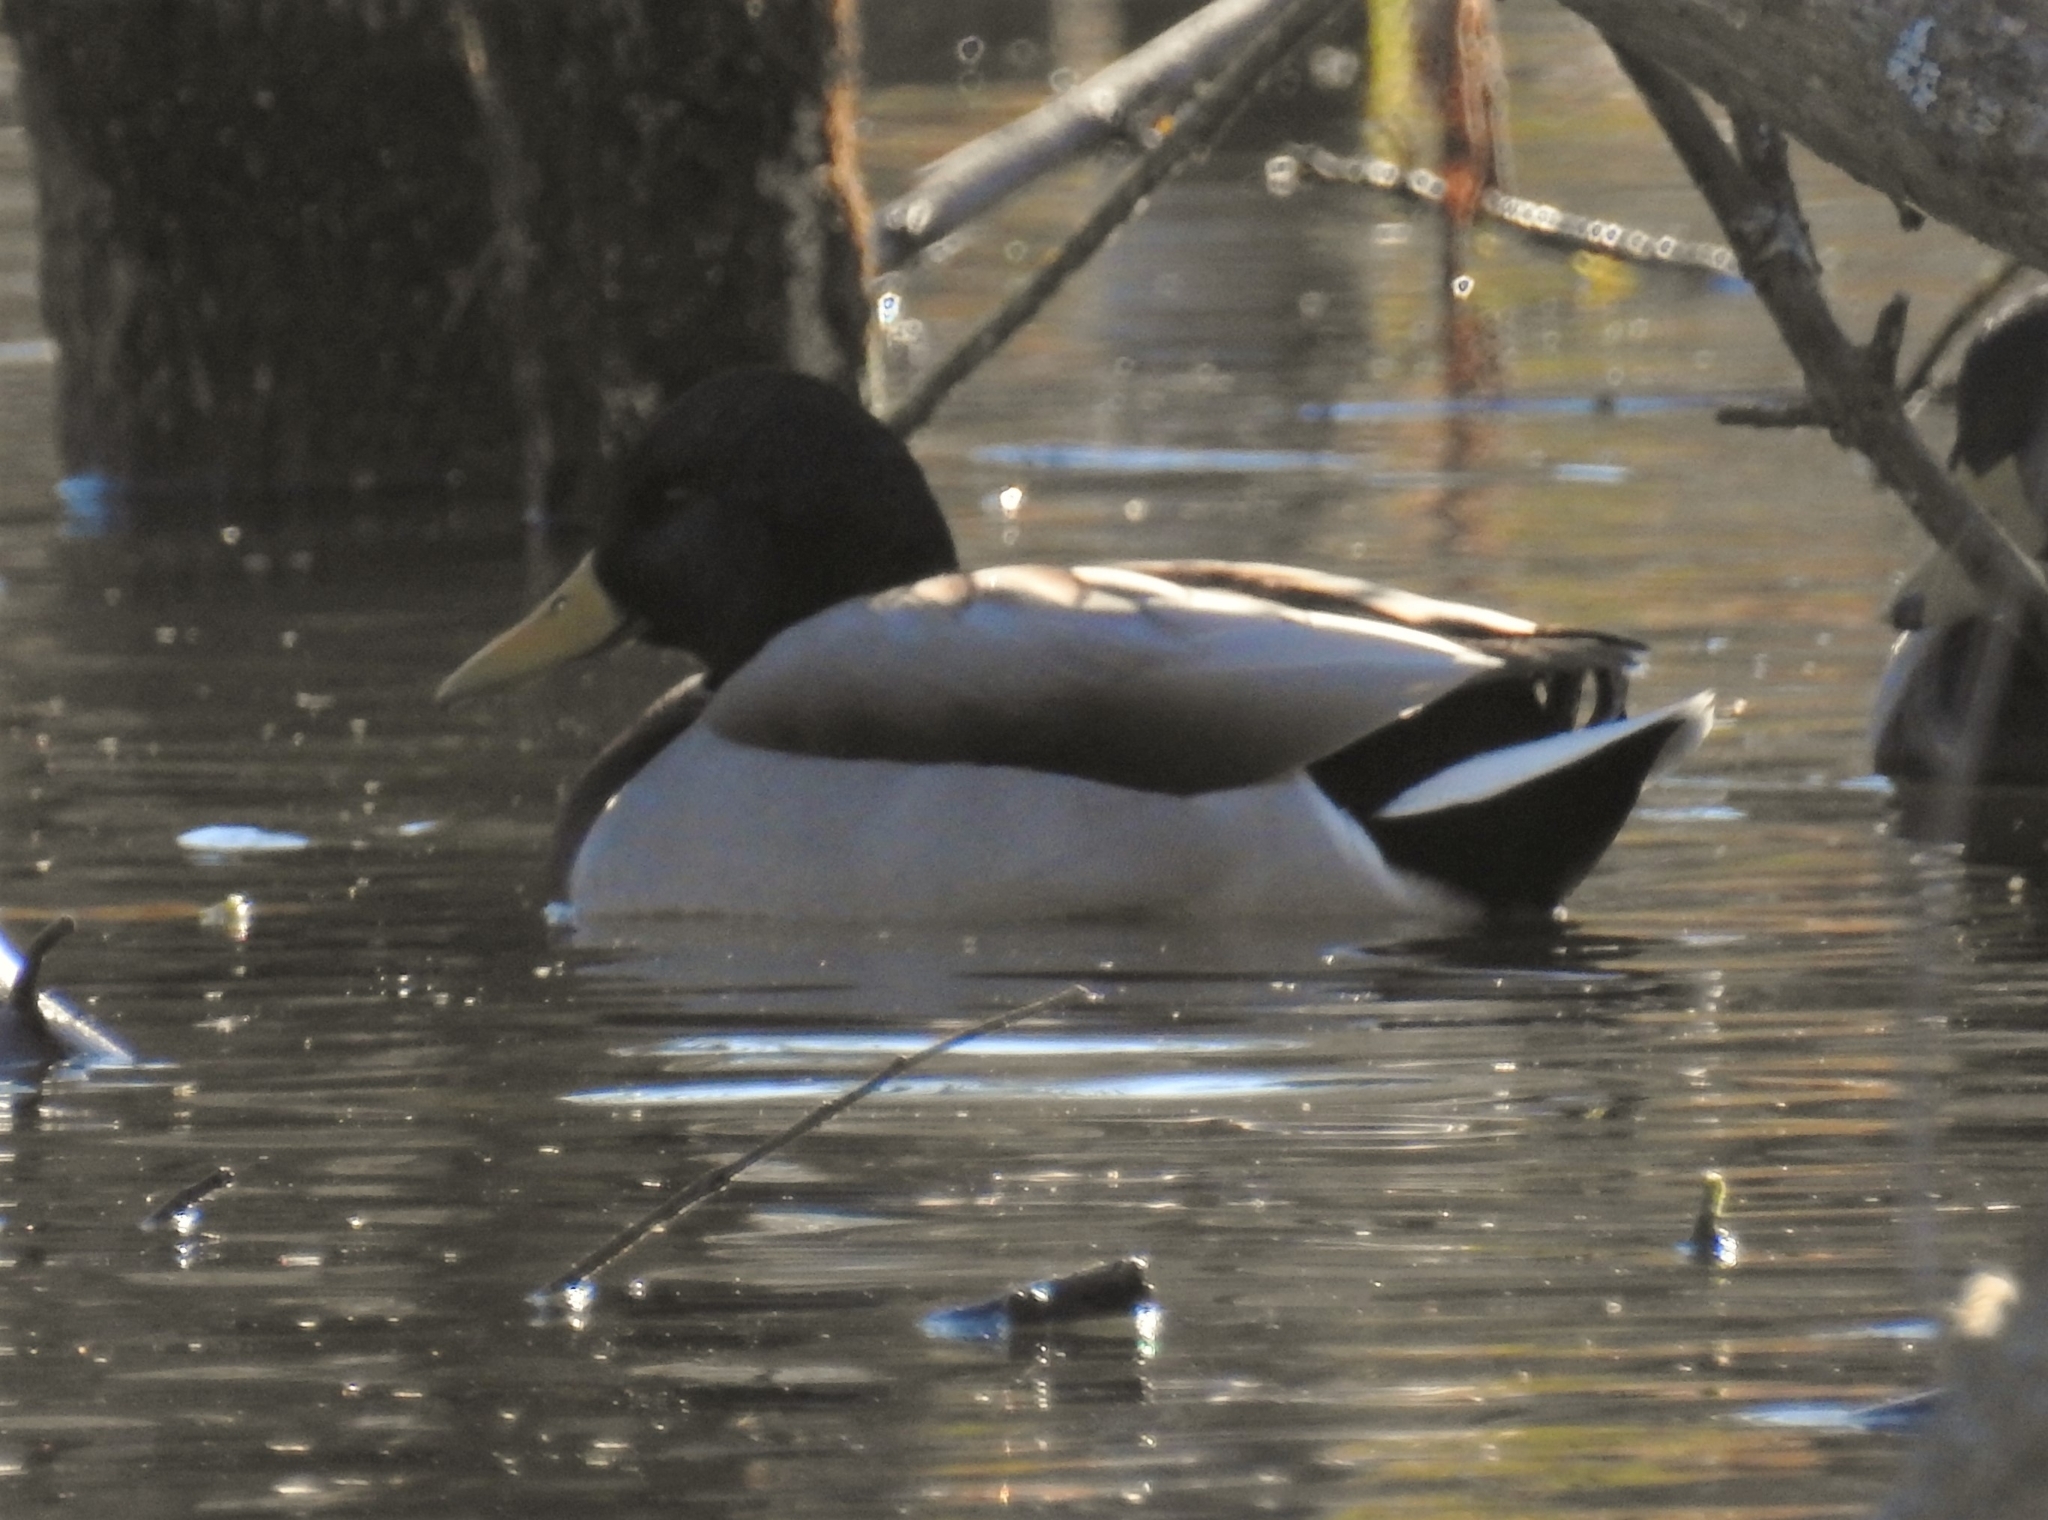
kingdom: Animalia
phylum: Chordata
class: Aves
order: Anseriformes
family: Anatidae
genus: Anas
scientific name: Anas platyrhynchos
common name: Mallard
